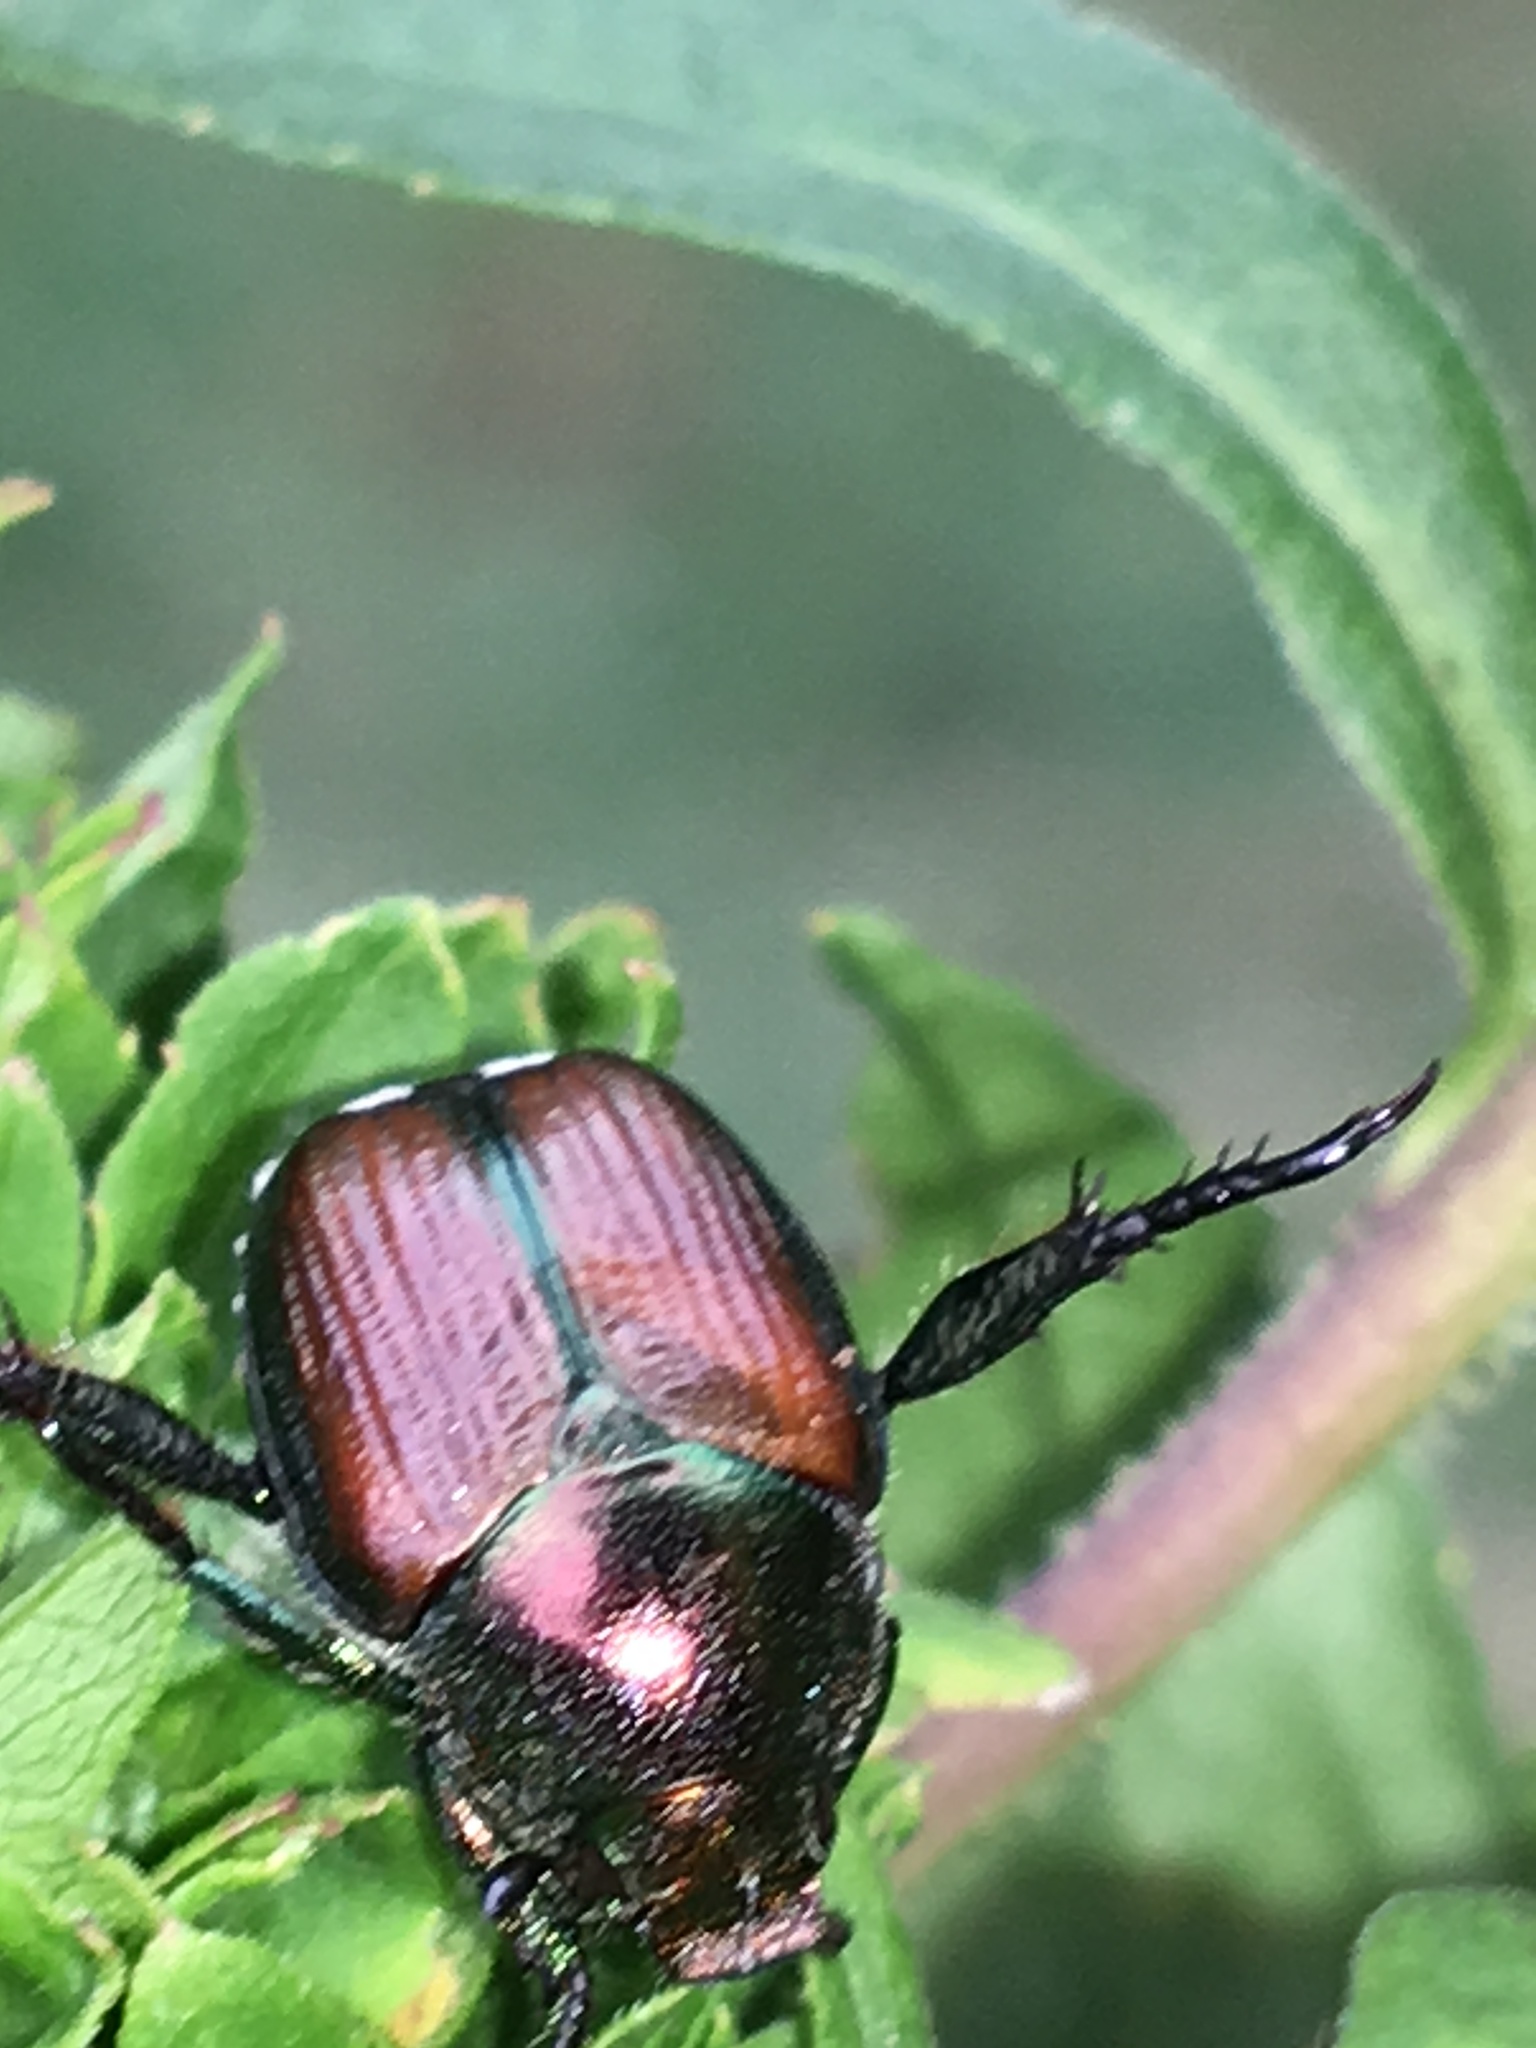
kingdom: Animalia
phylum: Arthropoda
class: Insecta
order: Coleoptera
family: Scarabaeidae
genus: Popillia
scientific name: Popillia japonica
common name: Japanese beetle
